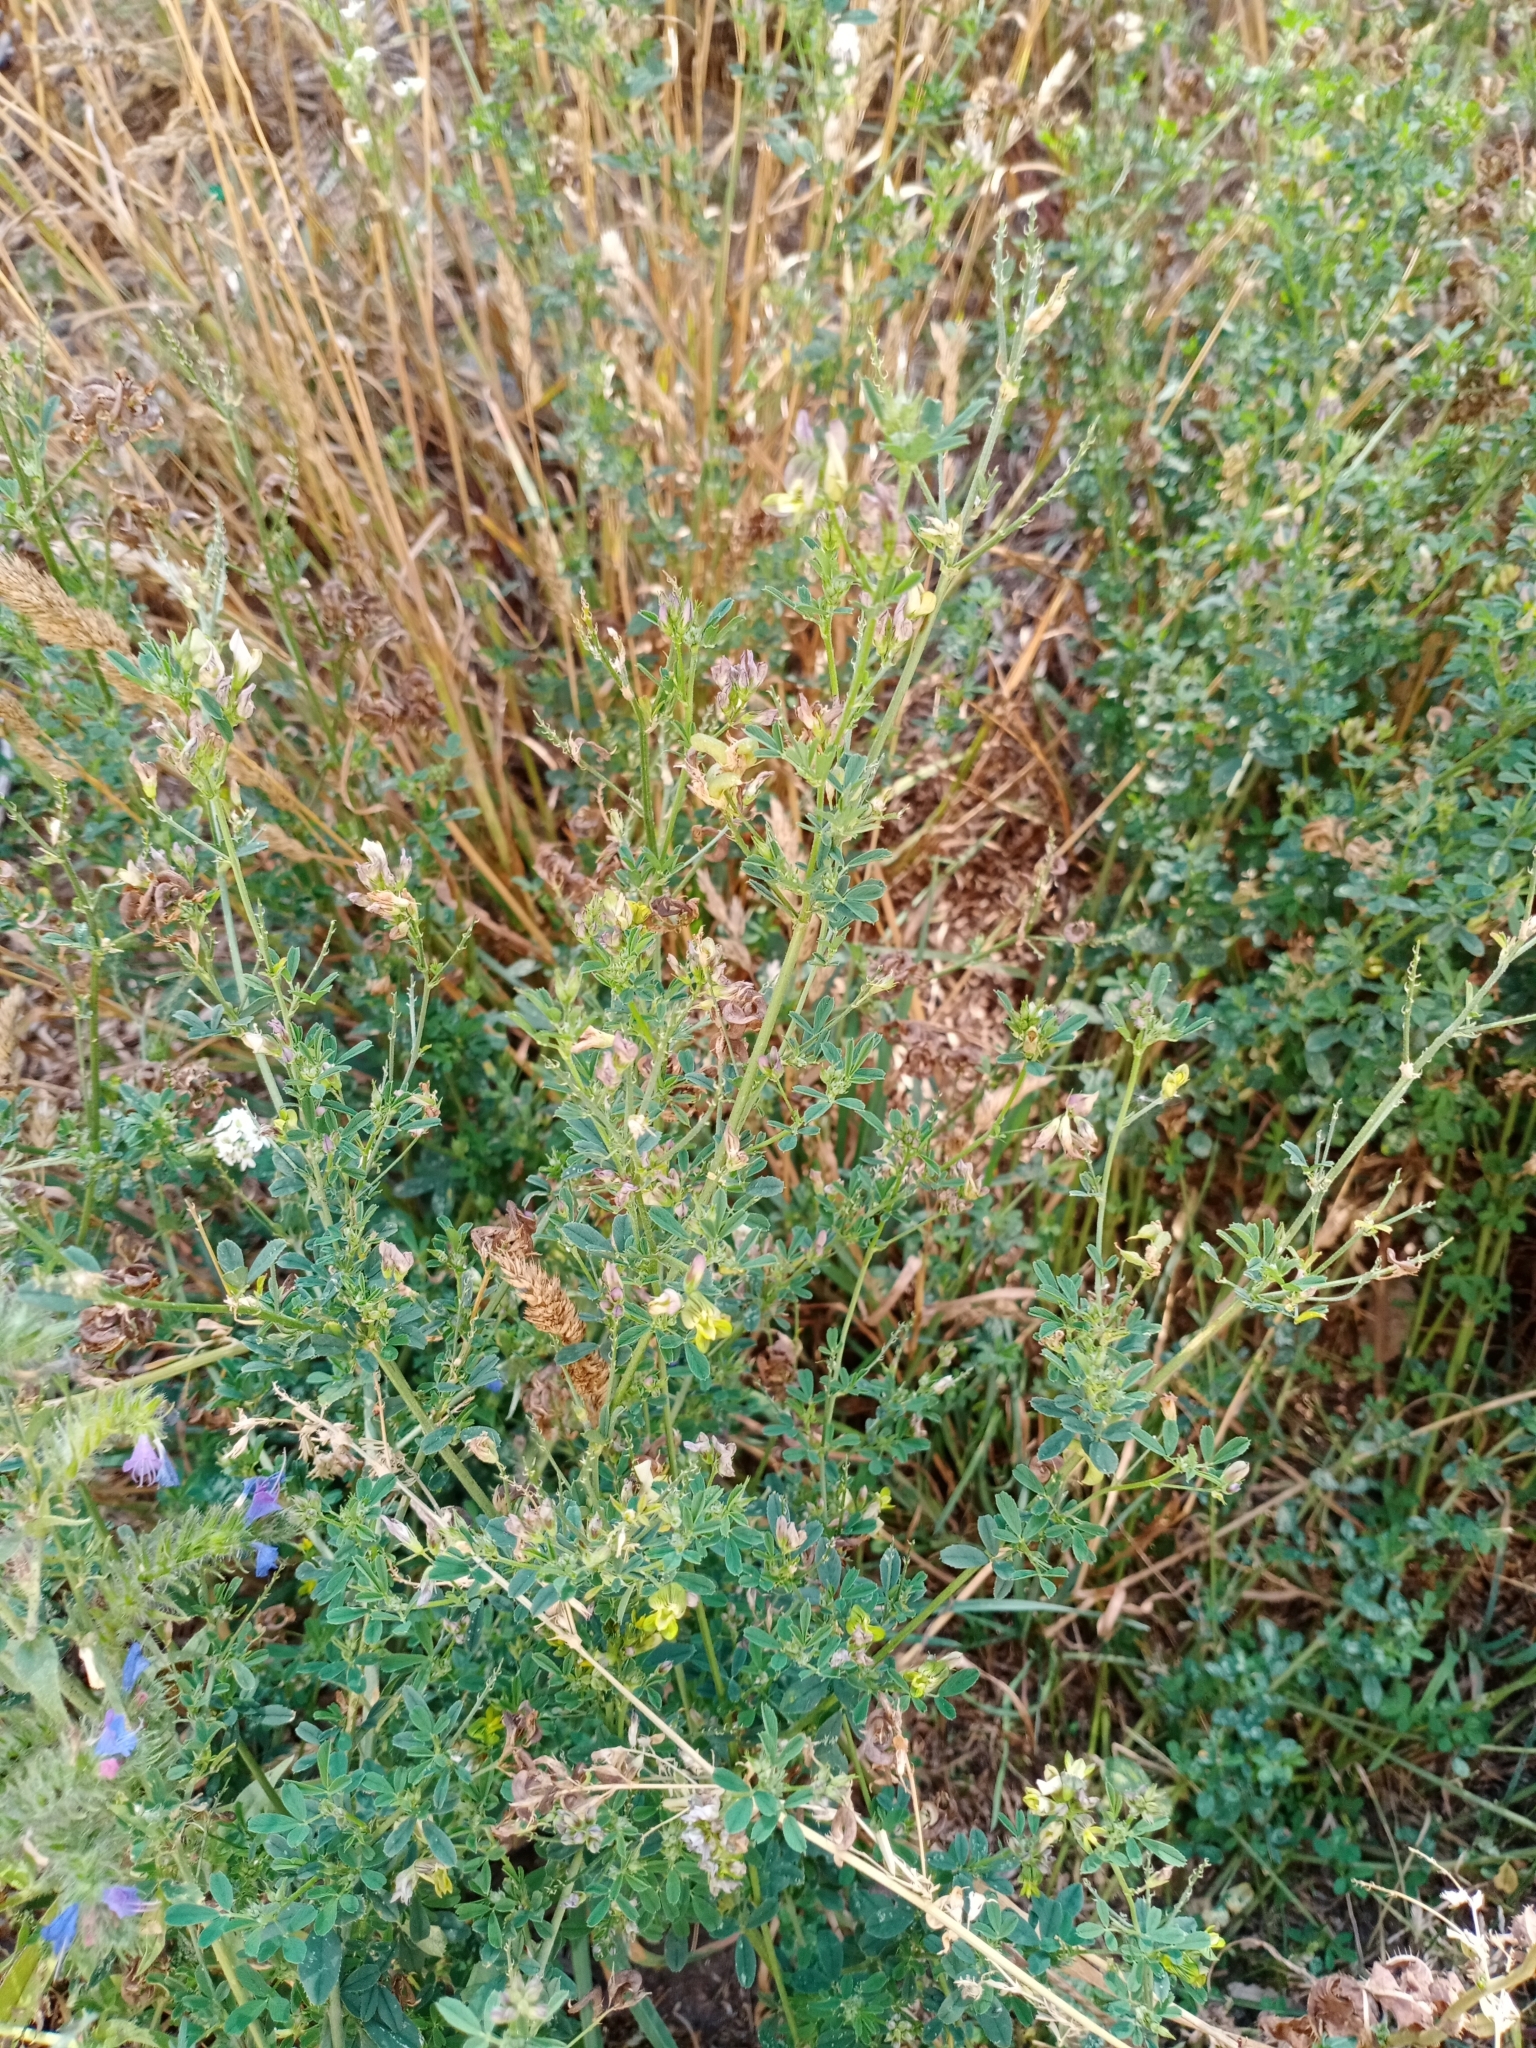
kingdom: Plantae
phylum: Tracheophyta
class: Magnoliopsida
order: Fabales
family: Fabaceae
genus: Medicago
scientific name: Medicago falcata
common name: Sickle medick
